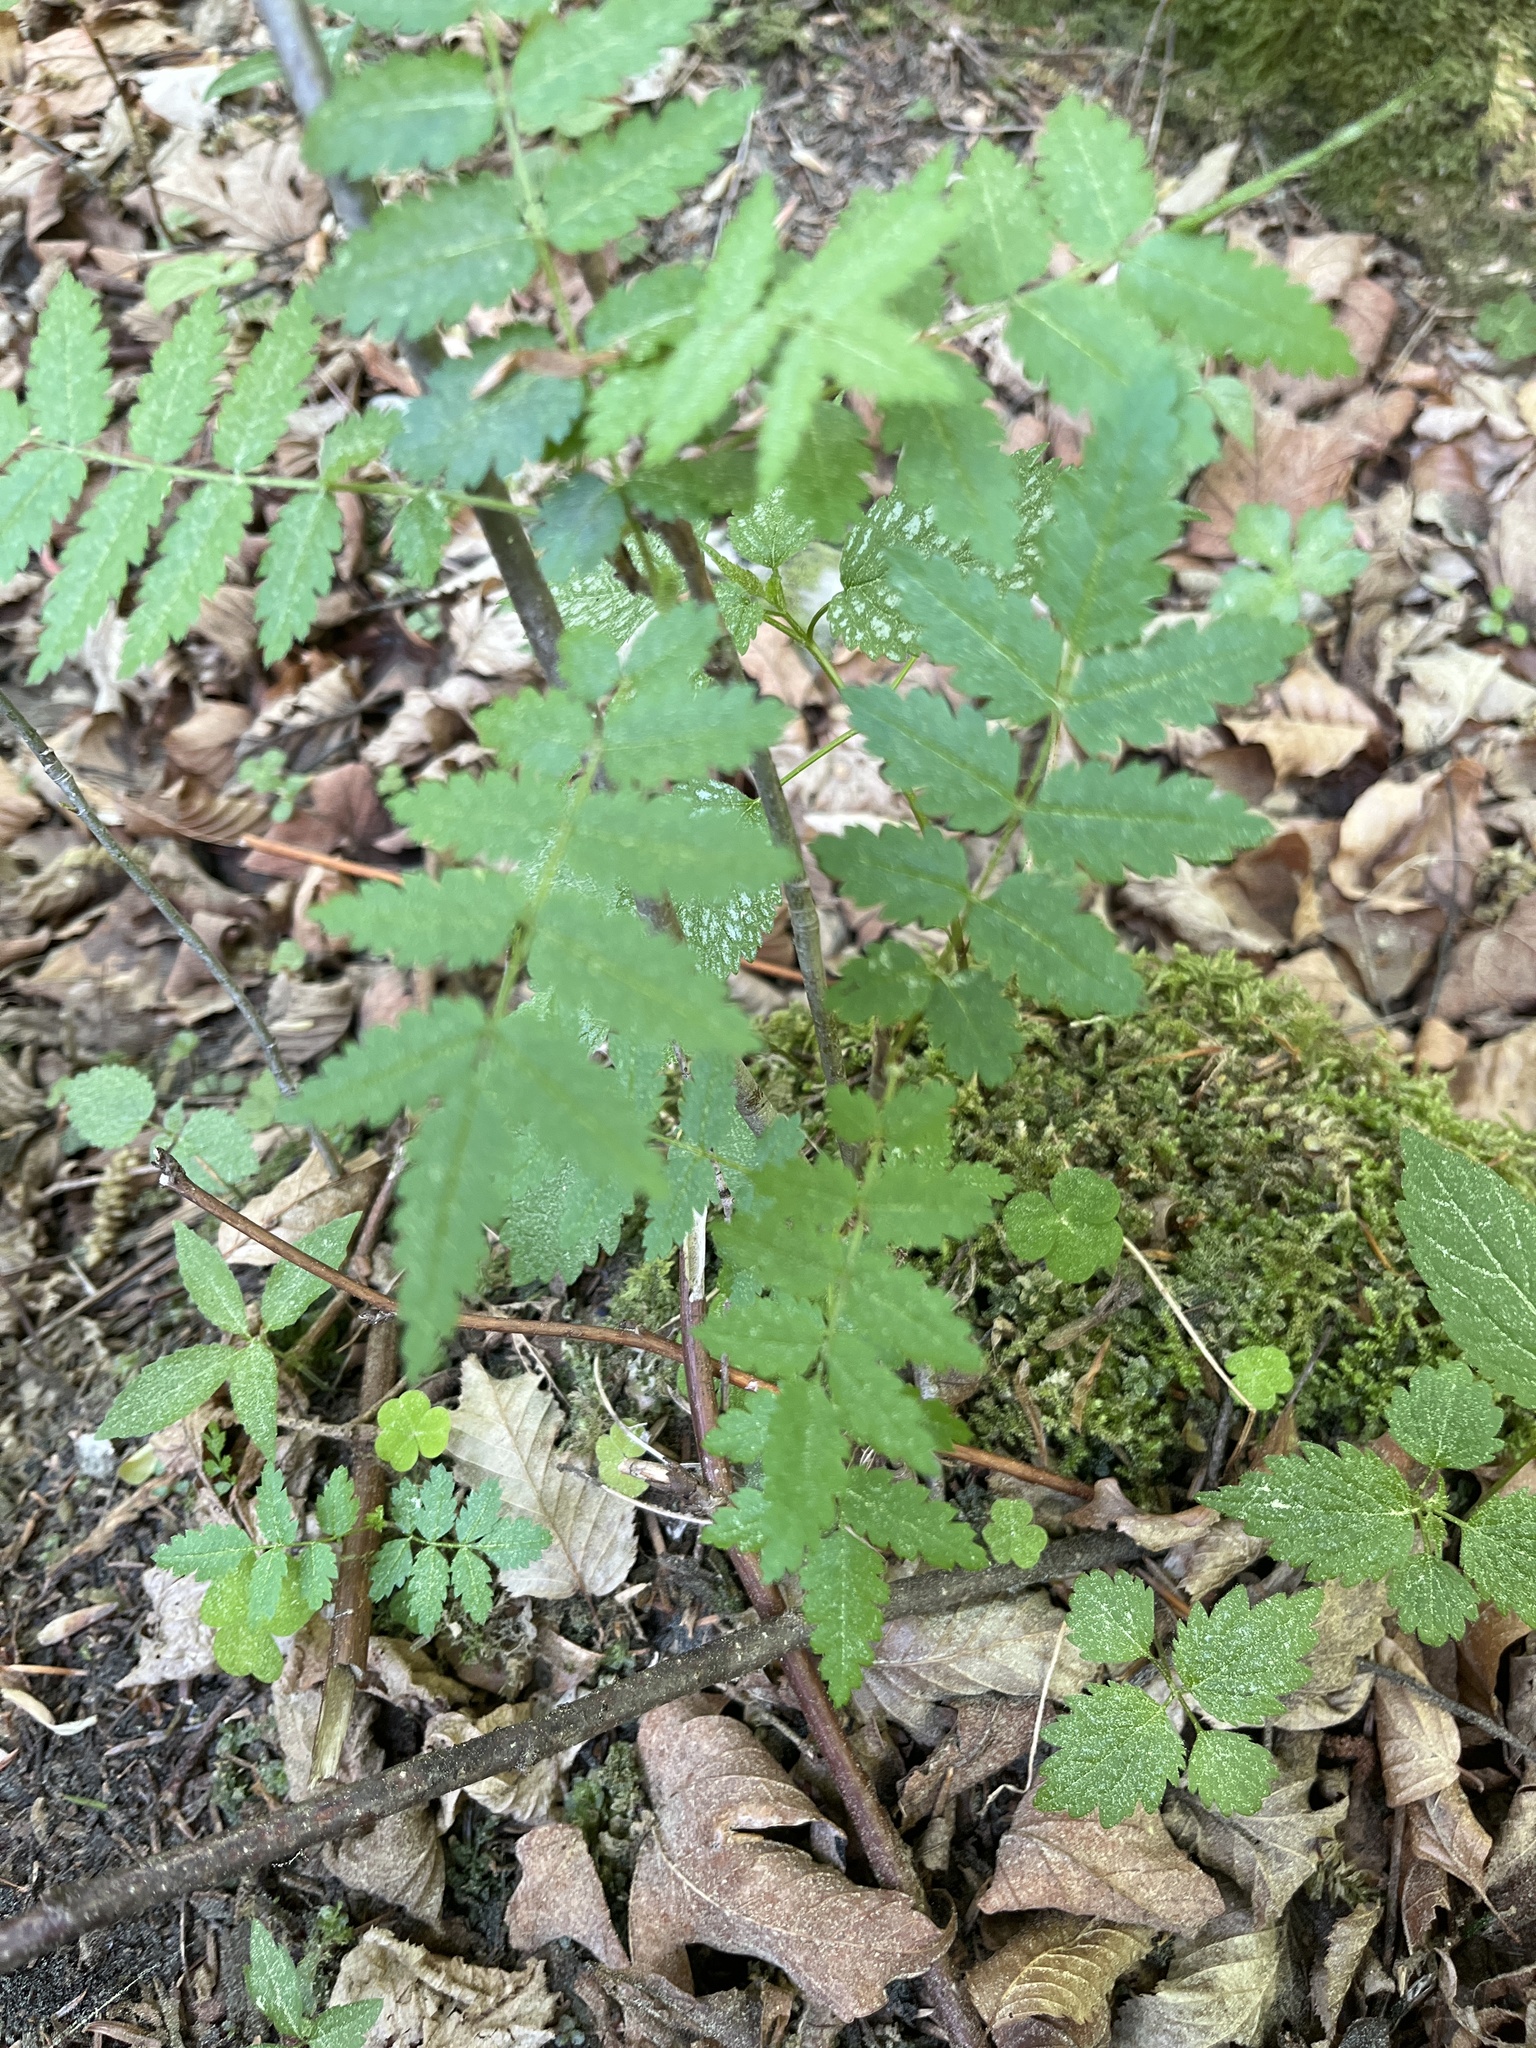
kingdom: Plantae
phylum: Tracheophyta
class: Magnoliopsida
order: Rosales
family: Rosaceae
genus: Sorbus
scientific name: Sorbus aucuparia
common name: Rowan
